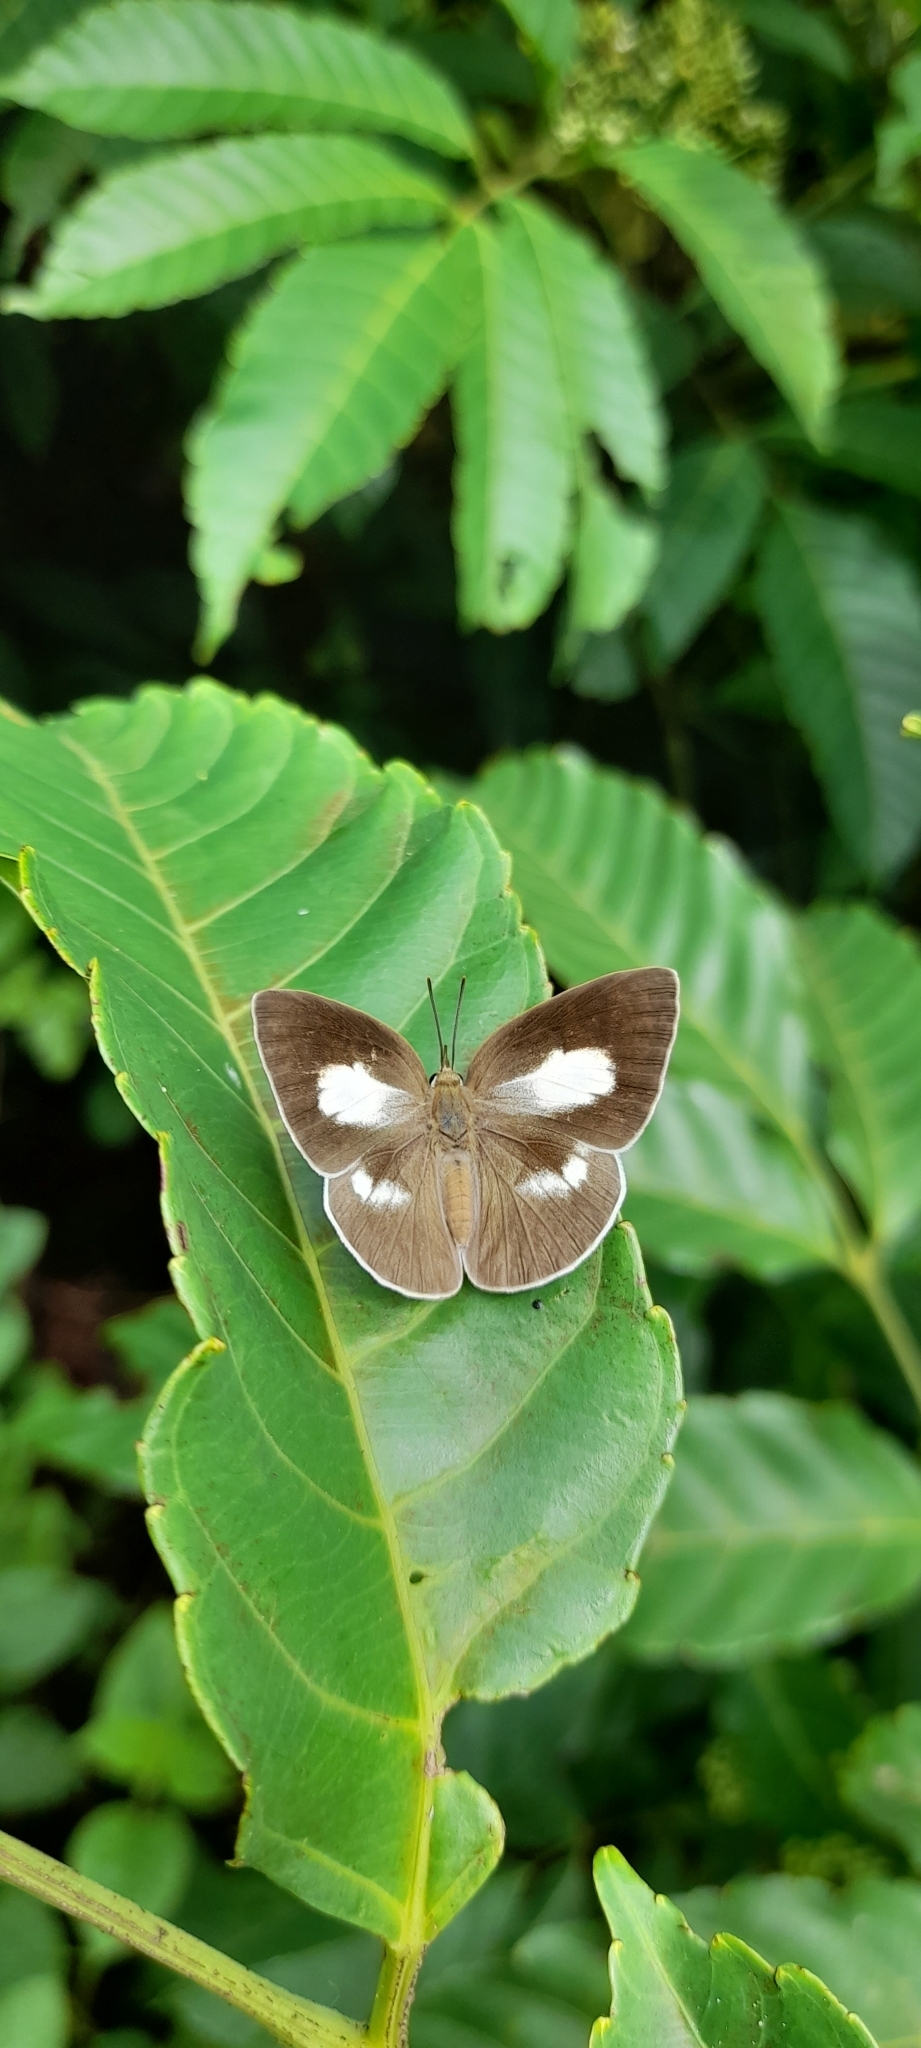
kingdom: Animalia
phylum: Arthropoda
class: Insecta
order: Lepidoptera
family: Lycaenidae
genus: Curetis
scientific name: Curetis thetis
